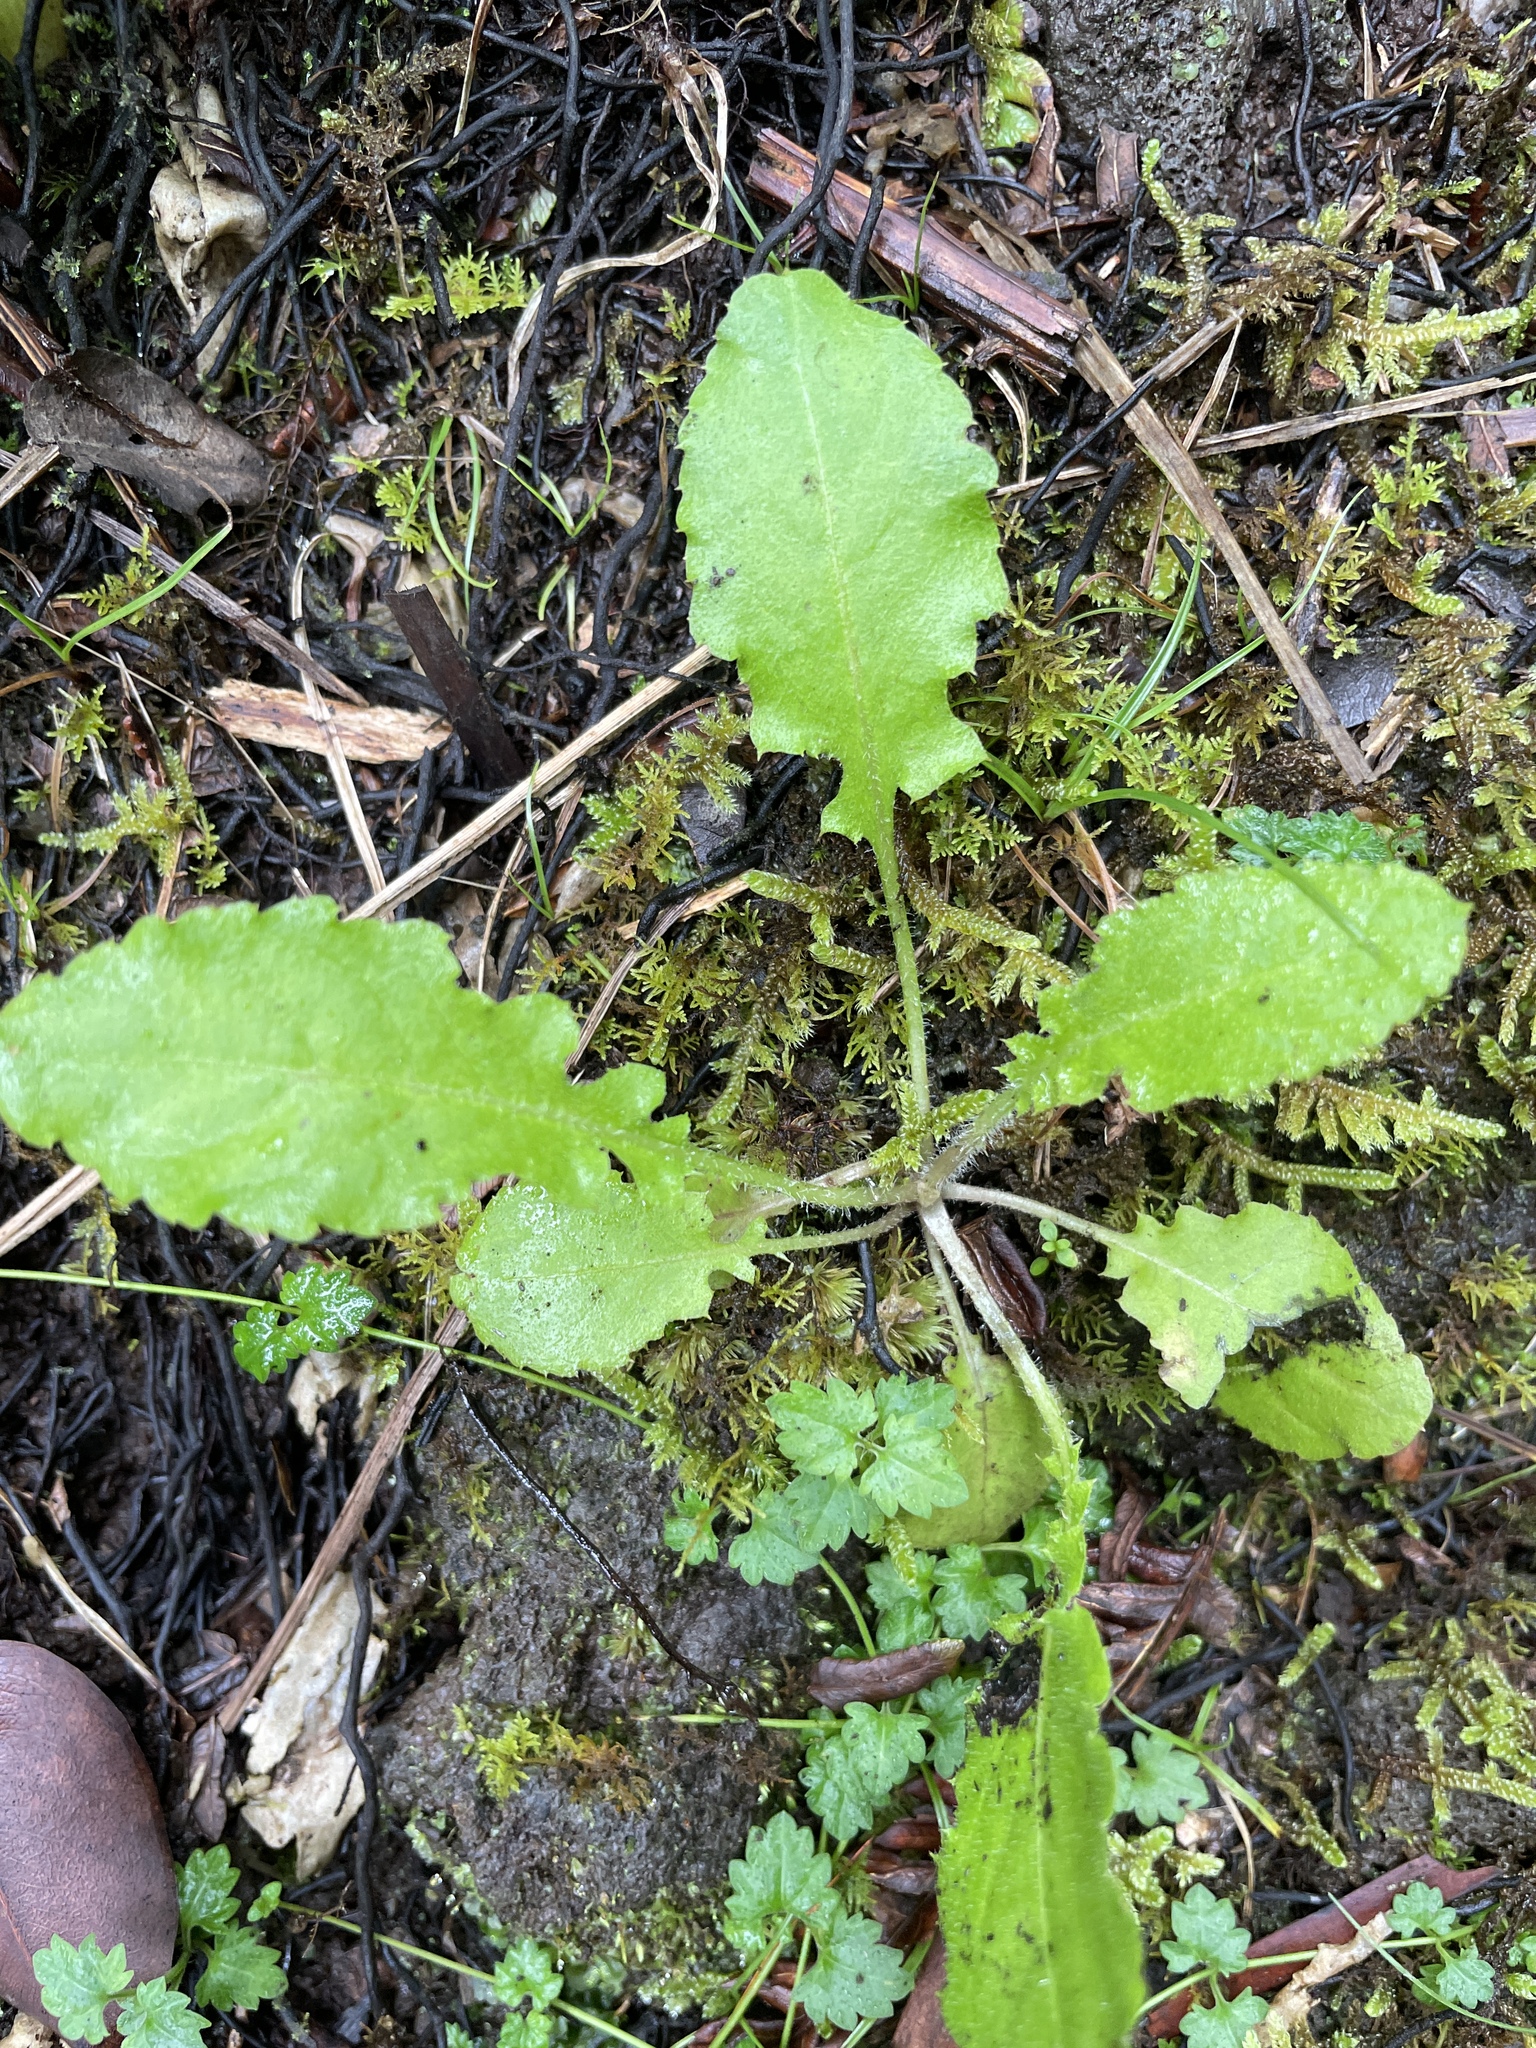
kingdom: Plantae
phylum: Tracheophyta
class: Magnoliopsida
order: Asterales
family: Asteraceae
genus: Youngia
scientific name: Youngia japonica
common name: Oriental false hawksbeard
